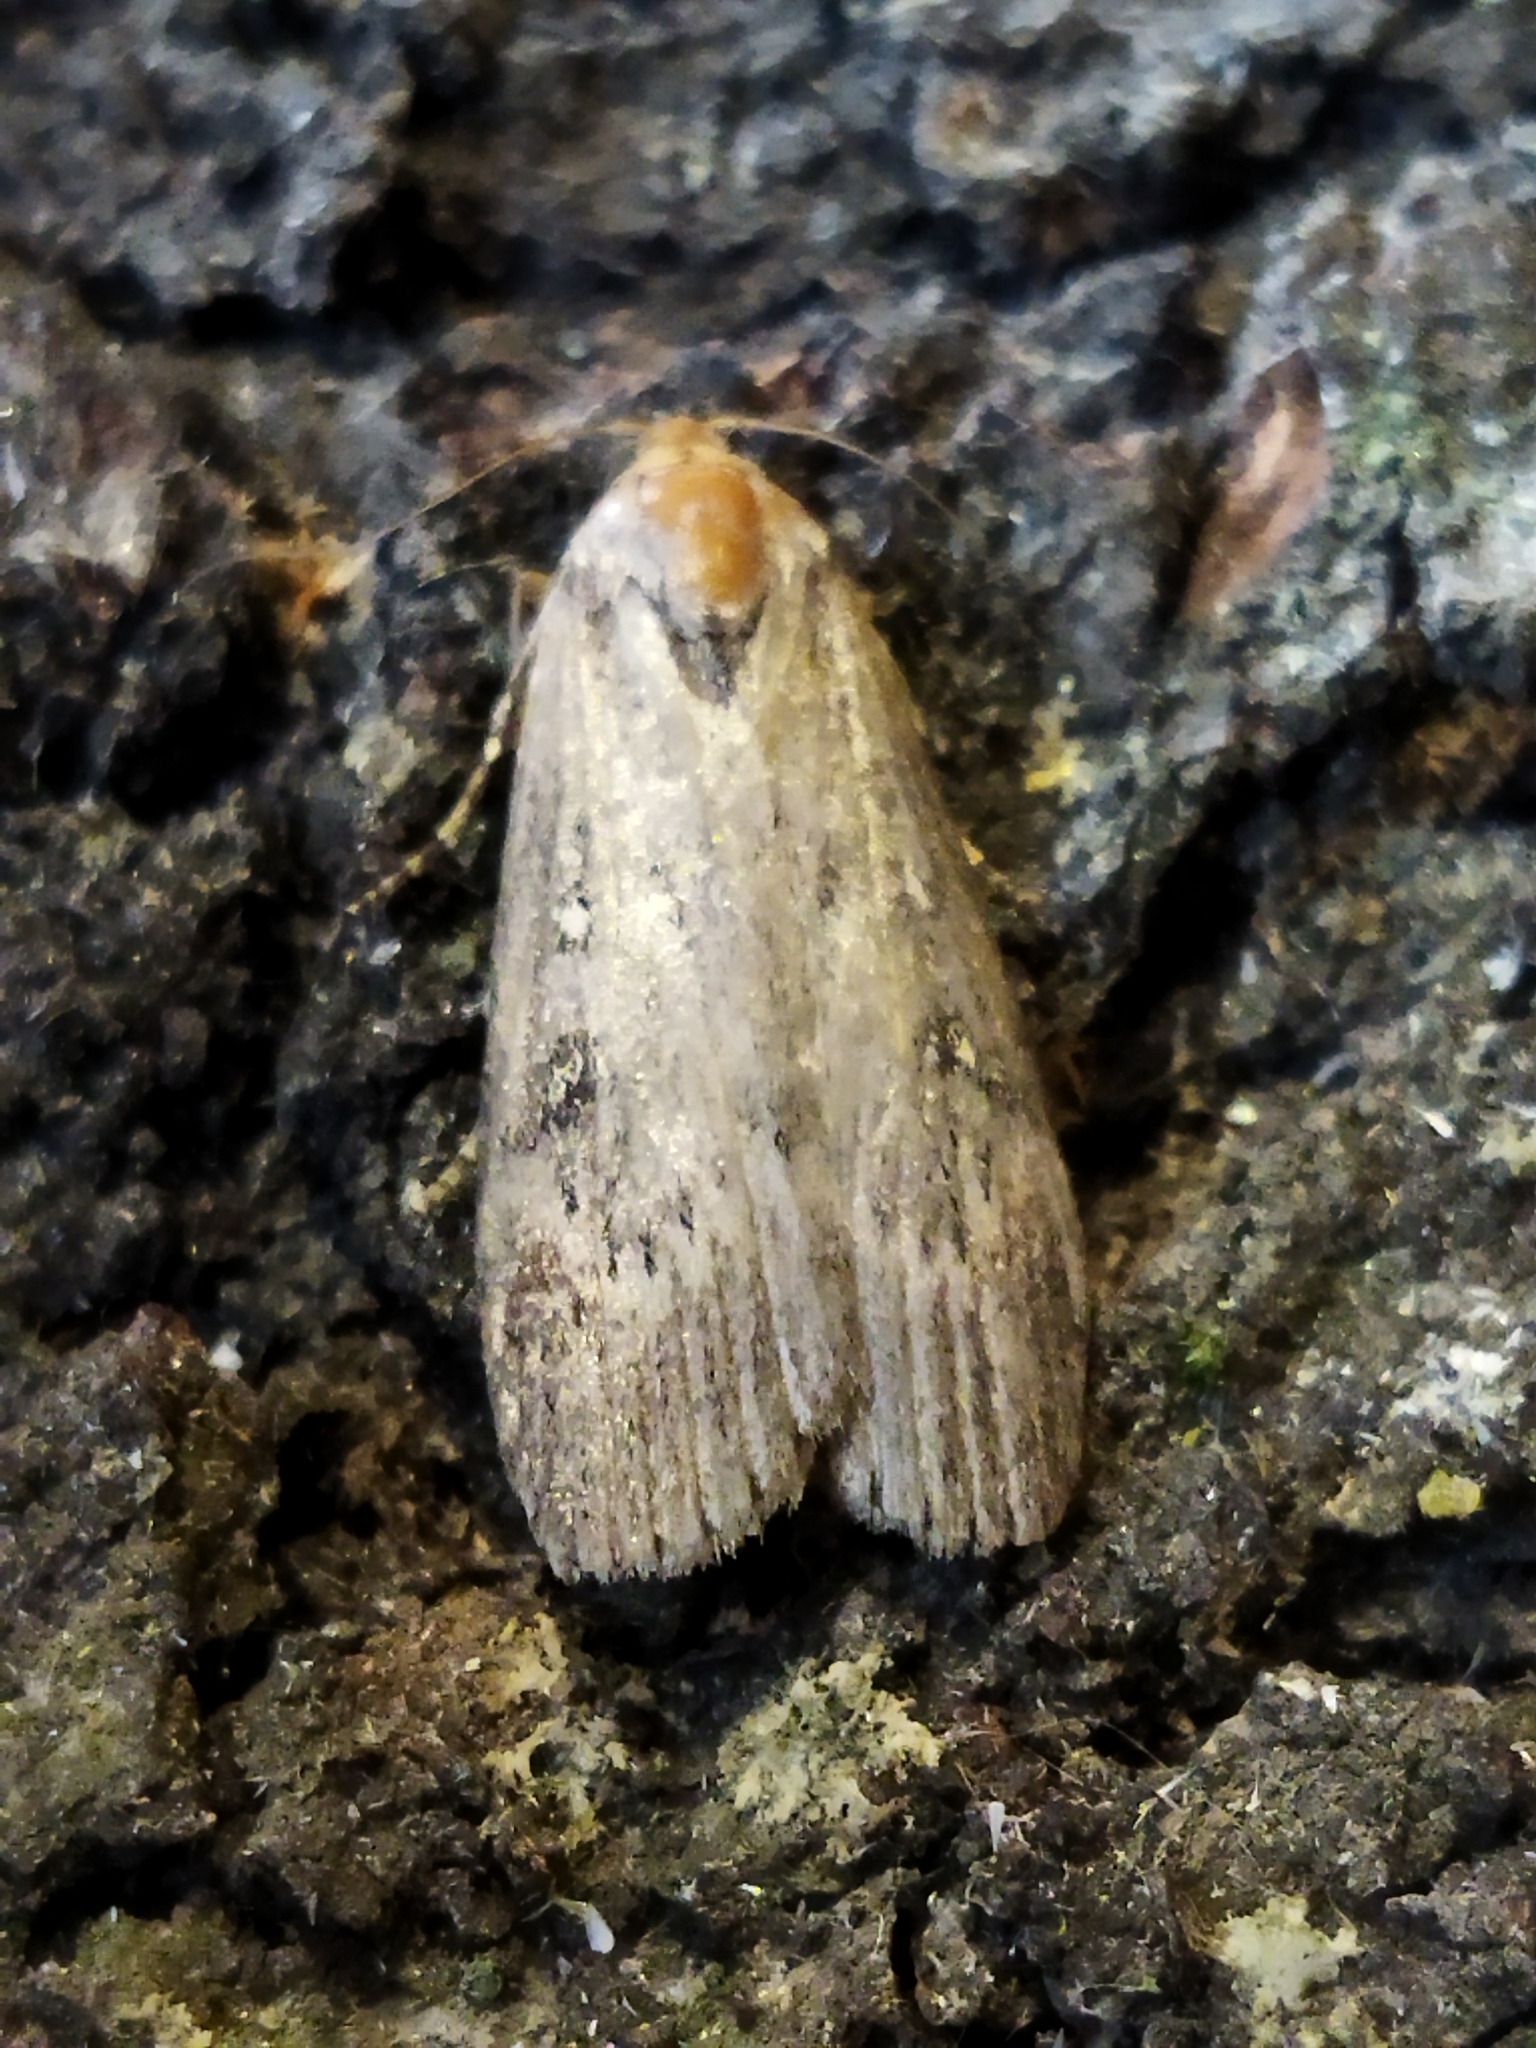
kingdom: Animalia
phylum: Arthropoda
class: Insecta
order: Lepidoptera
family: Pyralidae
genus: Lamoria
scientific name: Lamoria anella
